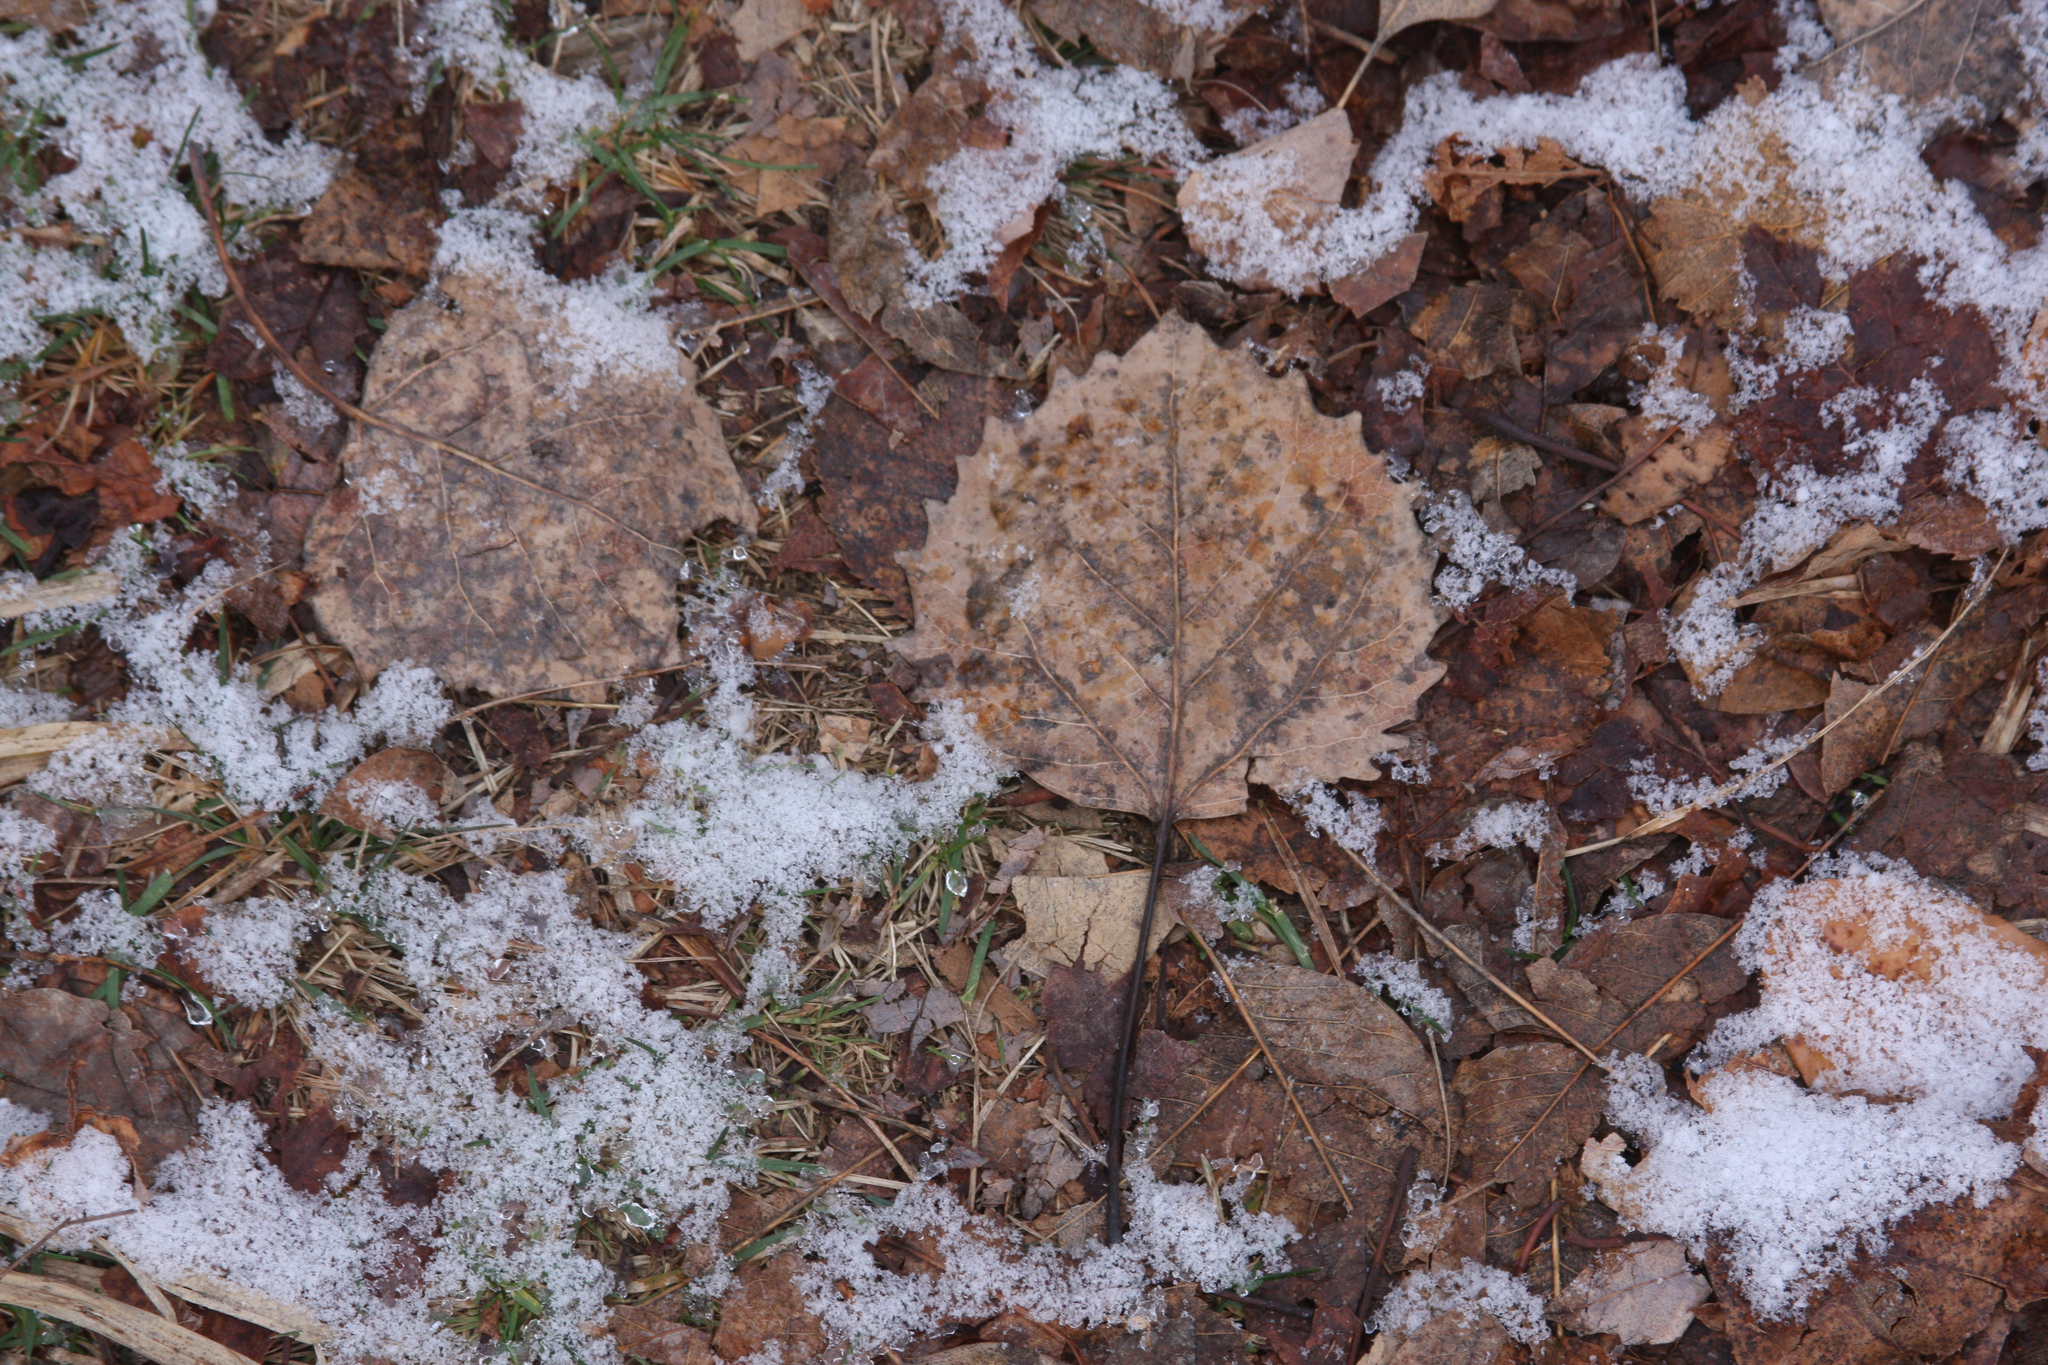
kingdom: Plantae
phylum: Tracheophyta
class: Magnoliopsida
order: Malpighiales
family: Salicaceae
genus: Populus
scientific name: Populus grandidentata
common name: Bigtooth aspen
